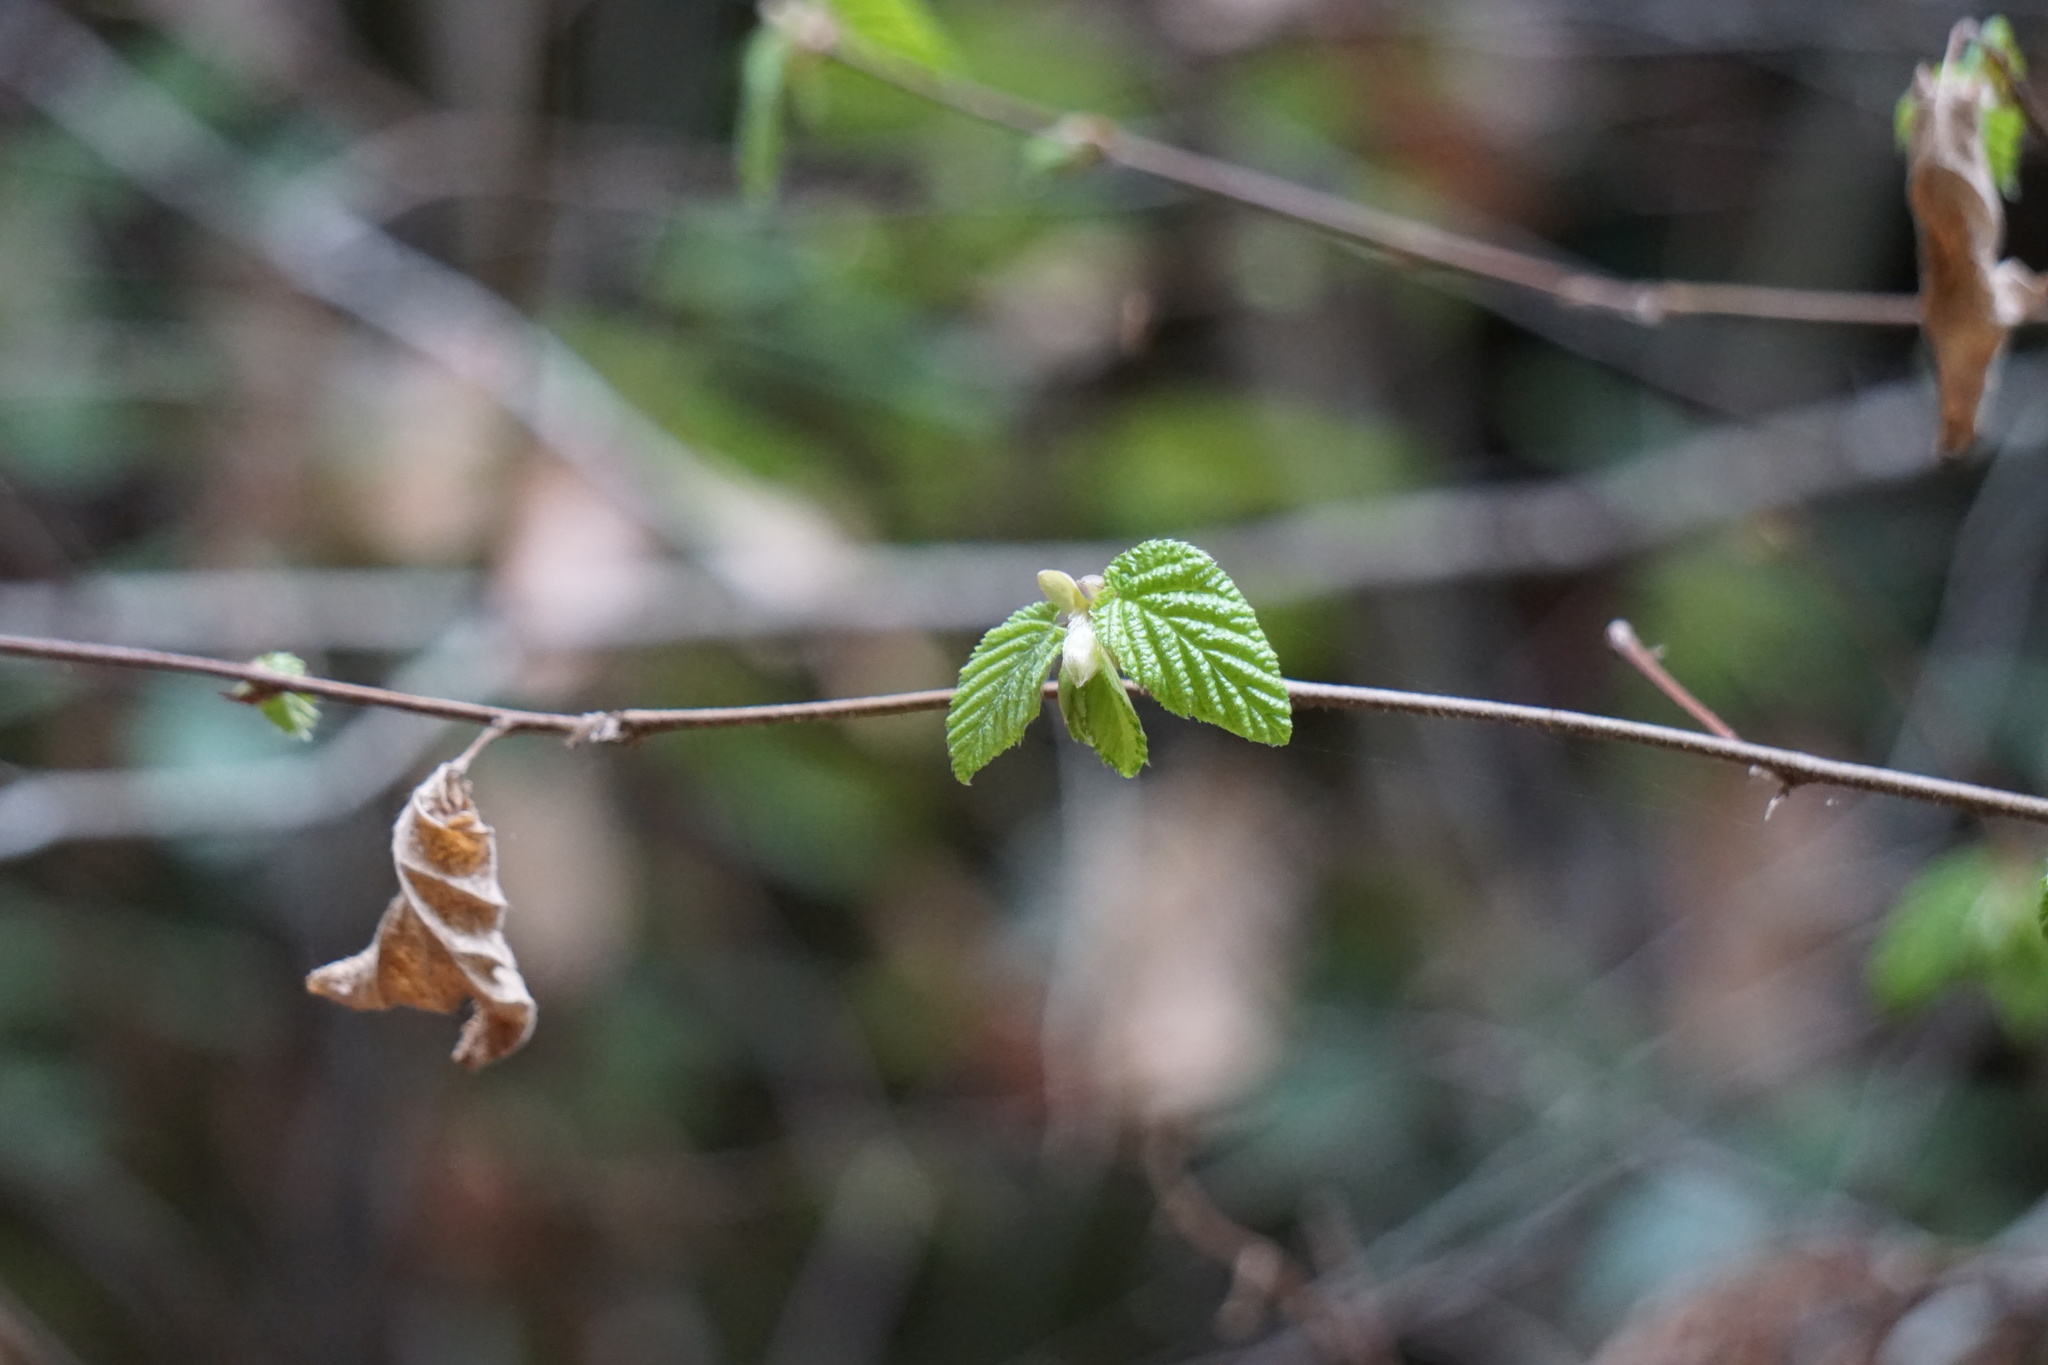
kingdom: Plantae
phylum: Tracheophyta
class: Magnoliopsida
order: Fagales
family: Betulaceae
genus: Corylus
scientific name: Corylus cornuta
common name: Beaked hazel
